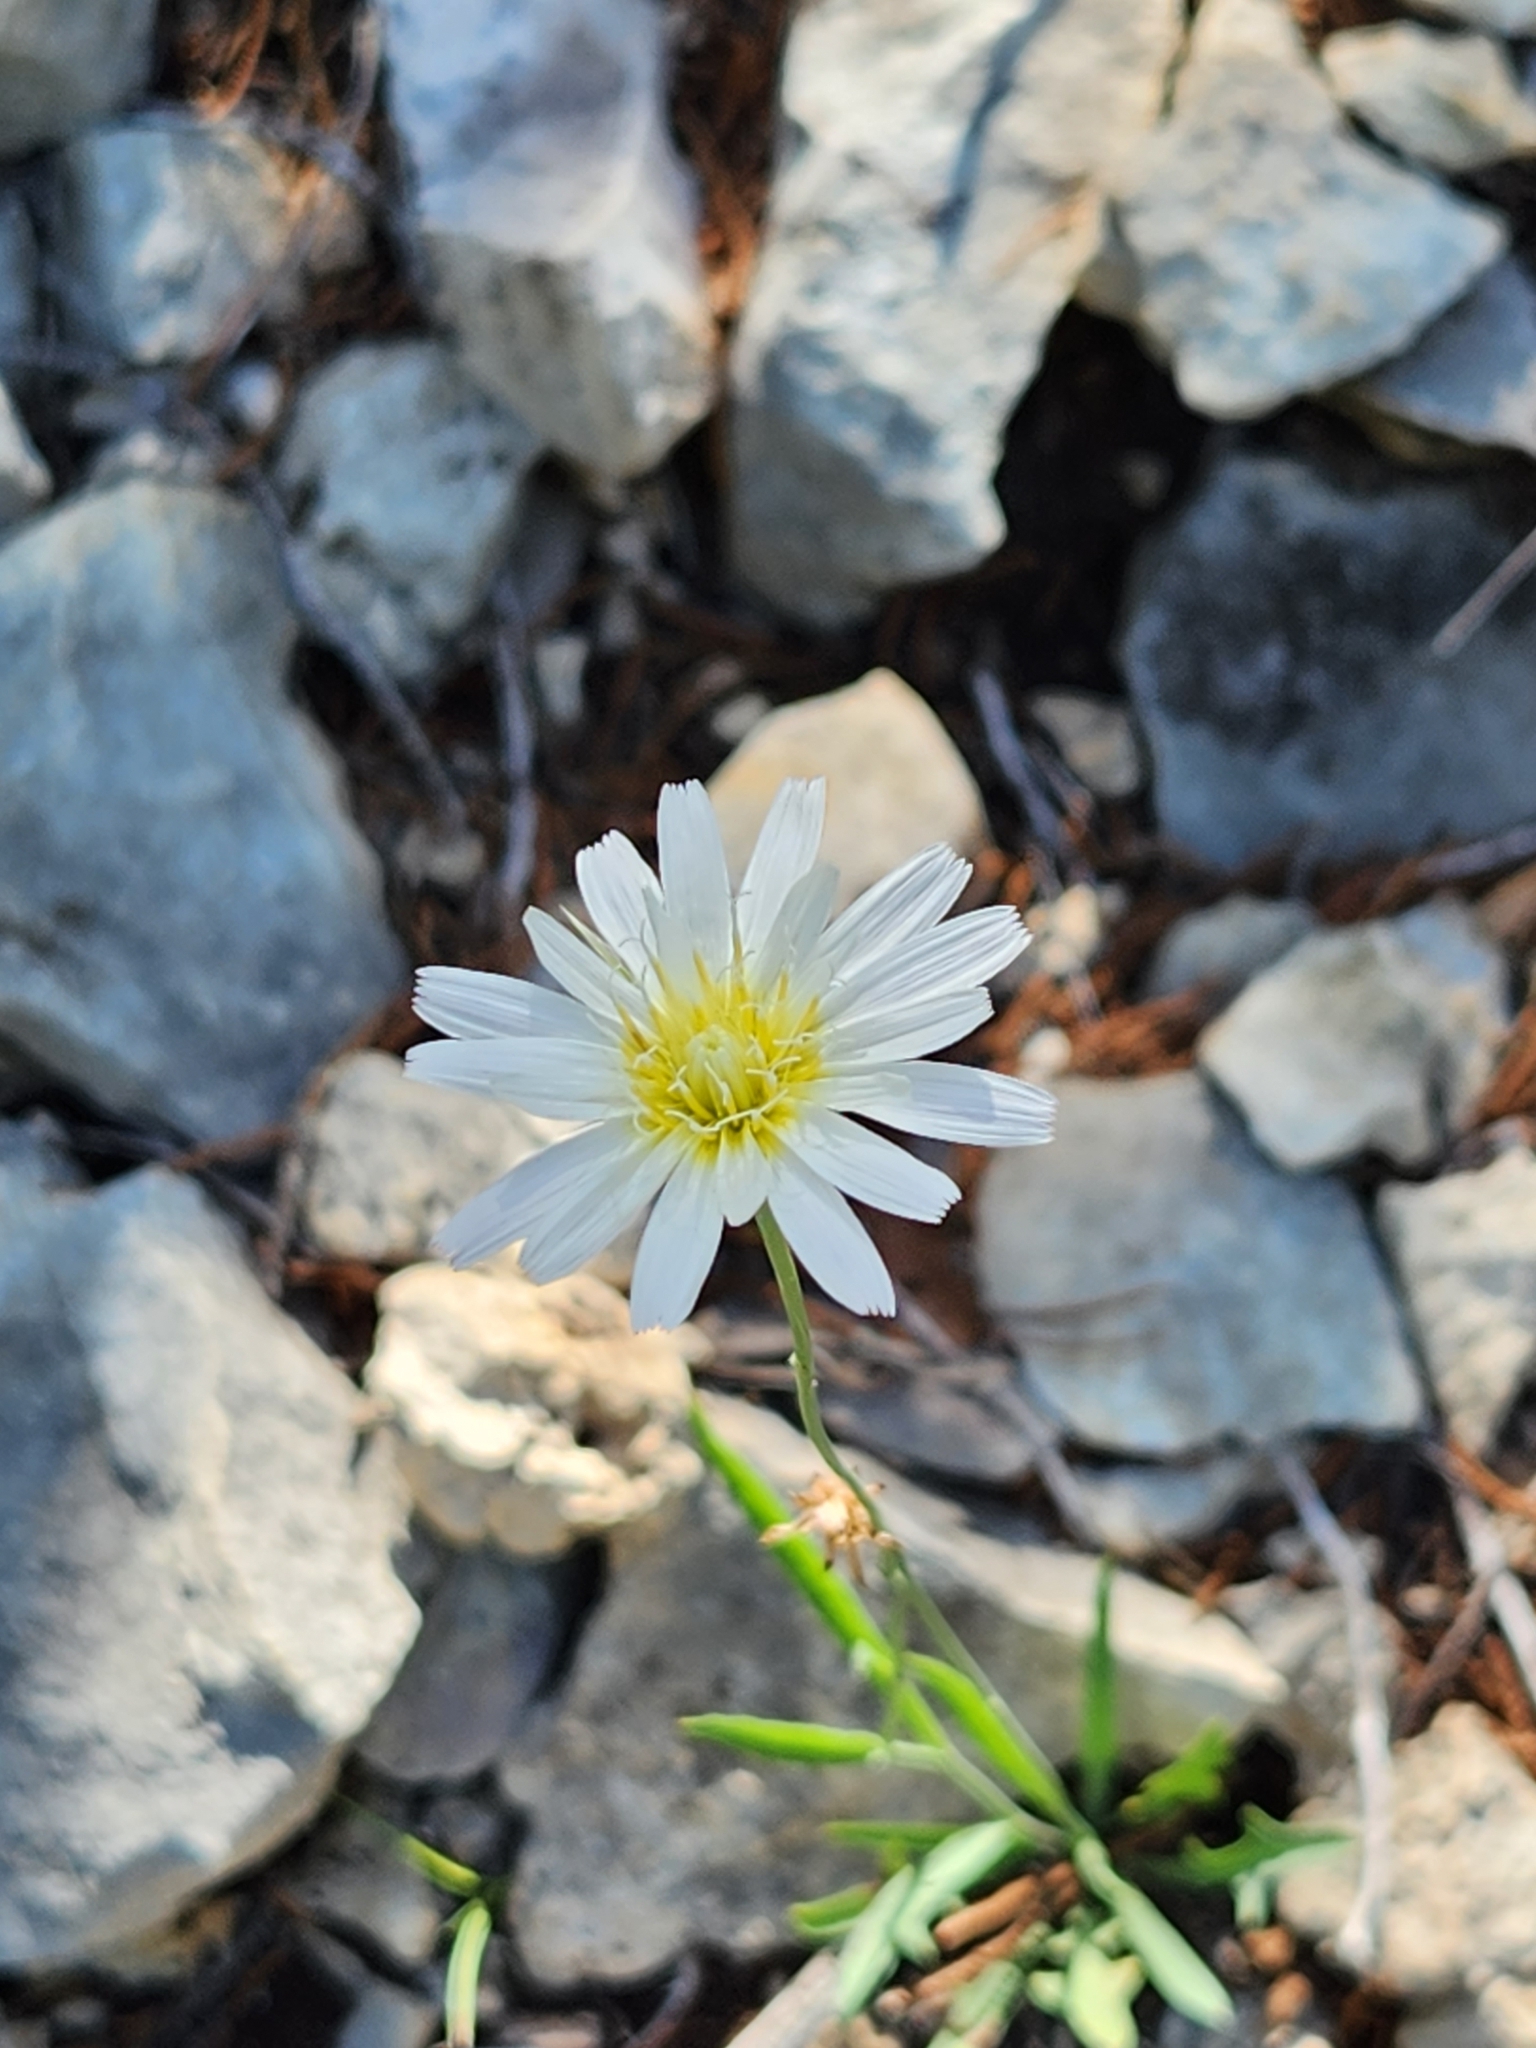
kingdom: Plantae
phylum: Tracheophyta
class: Magnoliopsida
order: Asterales
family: Asteraceae
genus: Pinaropappus
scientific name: Pinaropappus roseus
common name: Rock-lettuce
